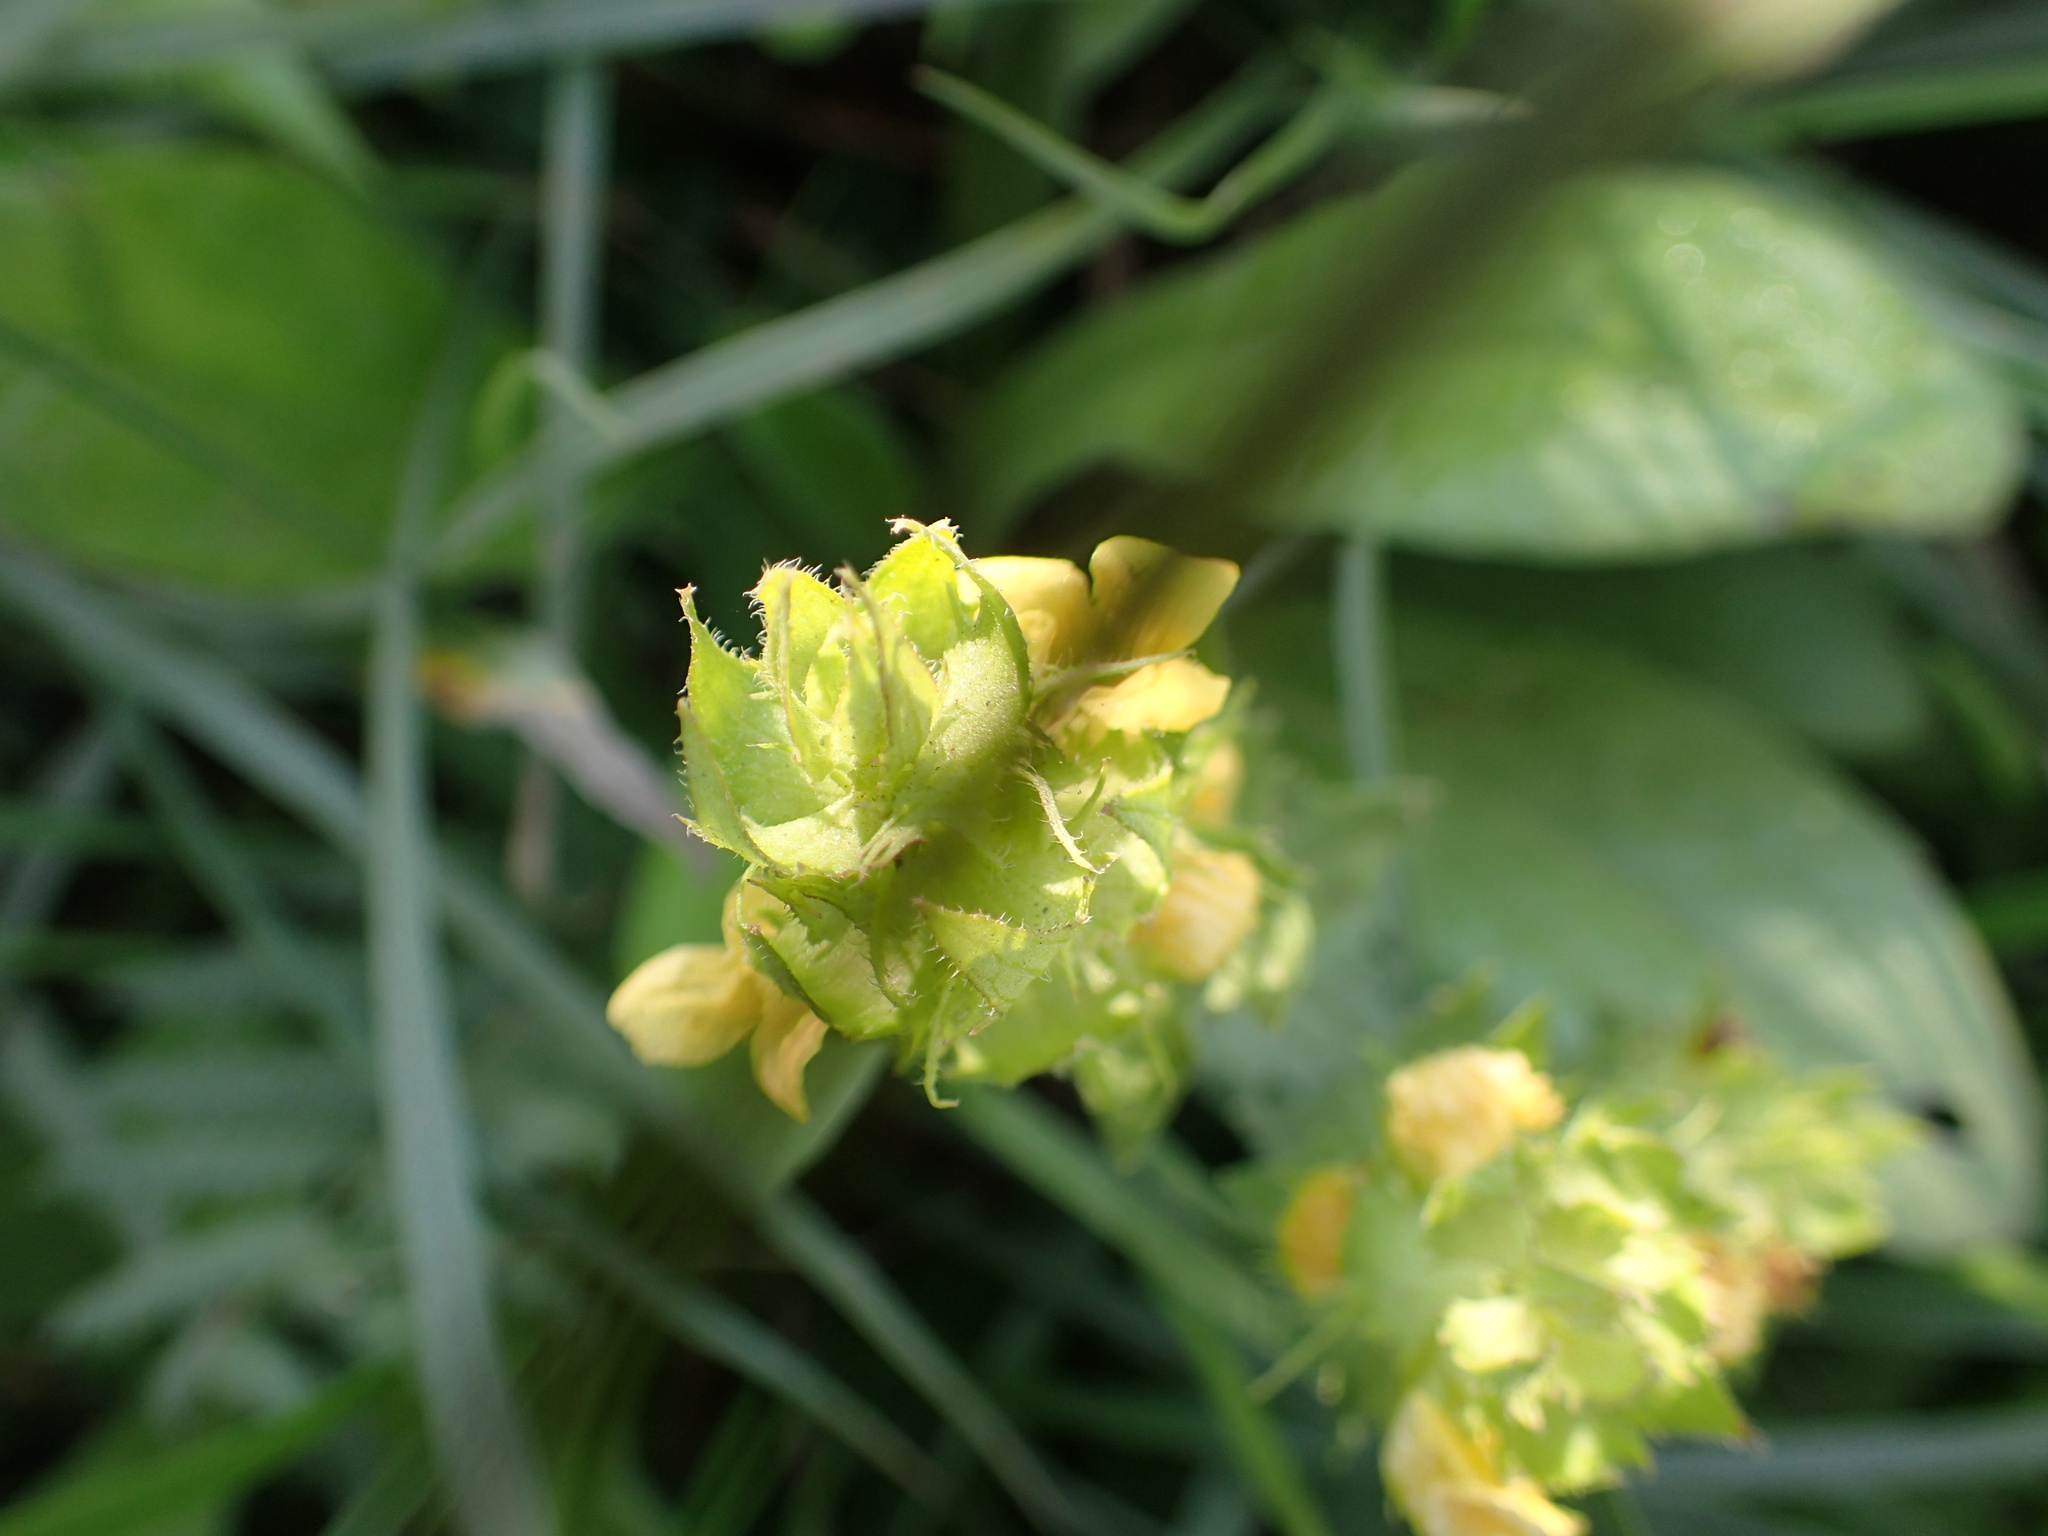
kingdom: Plantae
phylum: Tracheophyta
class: Magnoliopsida
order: Lamiales
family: Orobanchaceae
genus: Alectra
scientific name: Alectra sessiliflora
